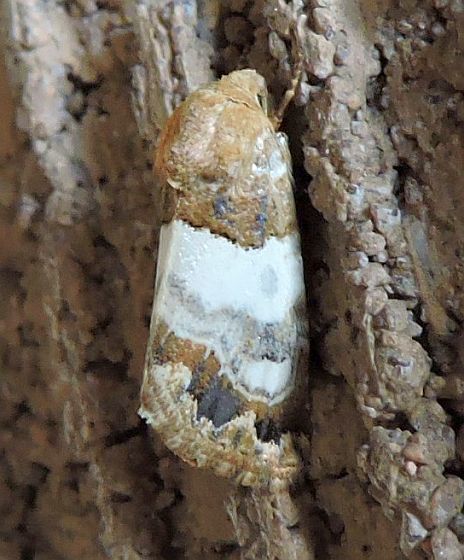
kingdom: Animalia
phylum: Arthropoda
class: Insecta
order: Lepidoptera
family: Noctuidae
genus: Schinia
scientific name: Schinia albafascia
